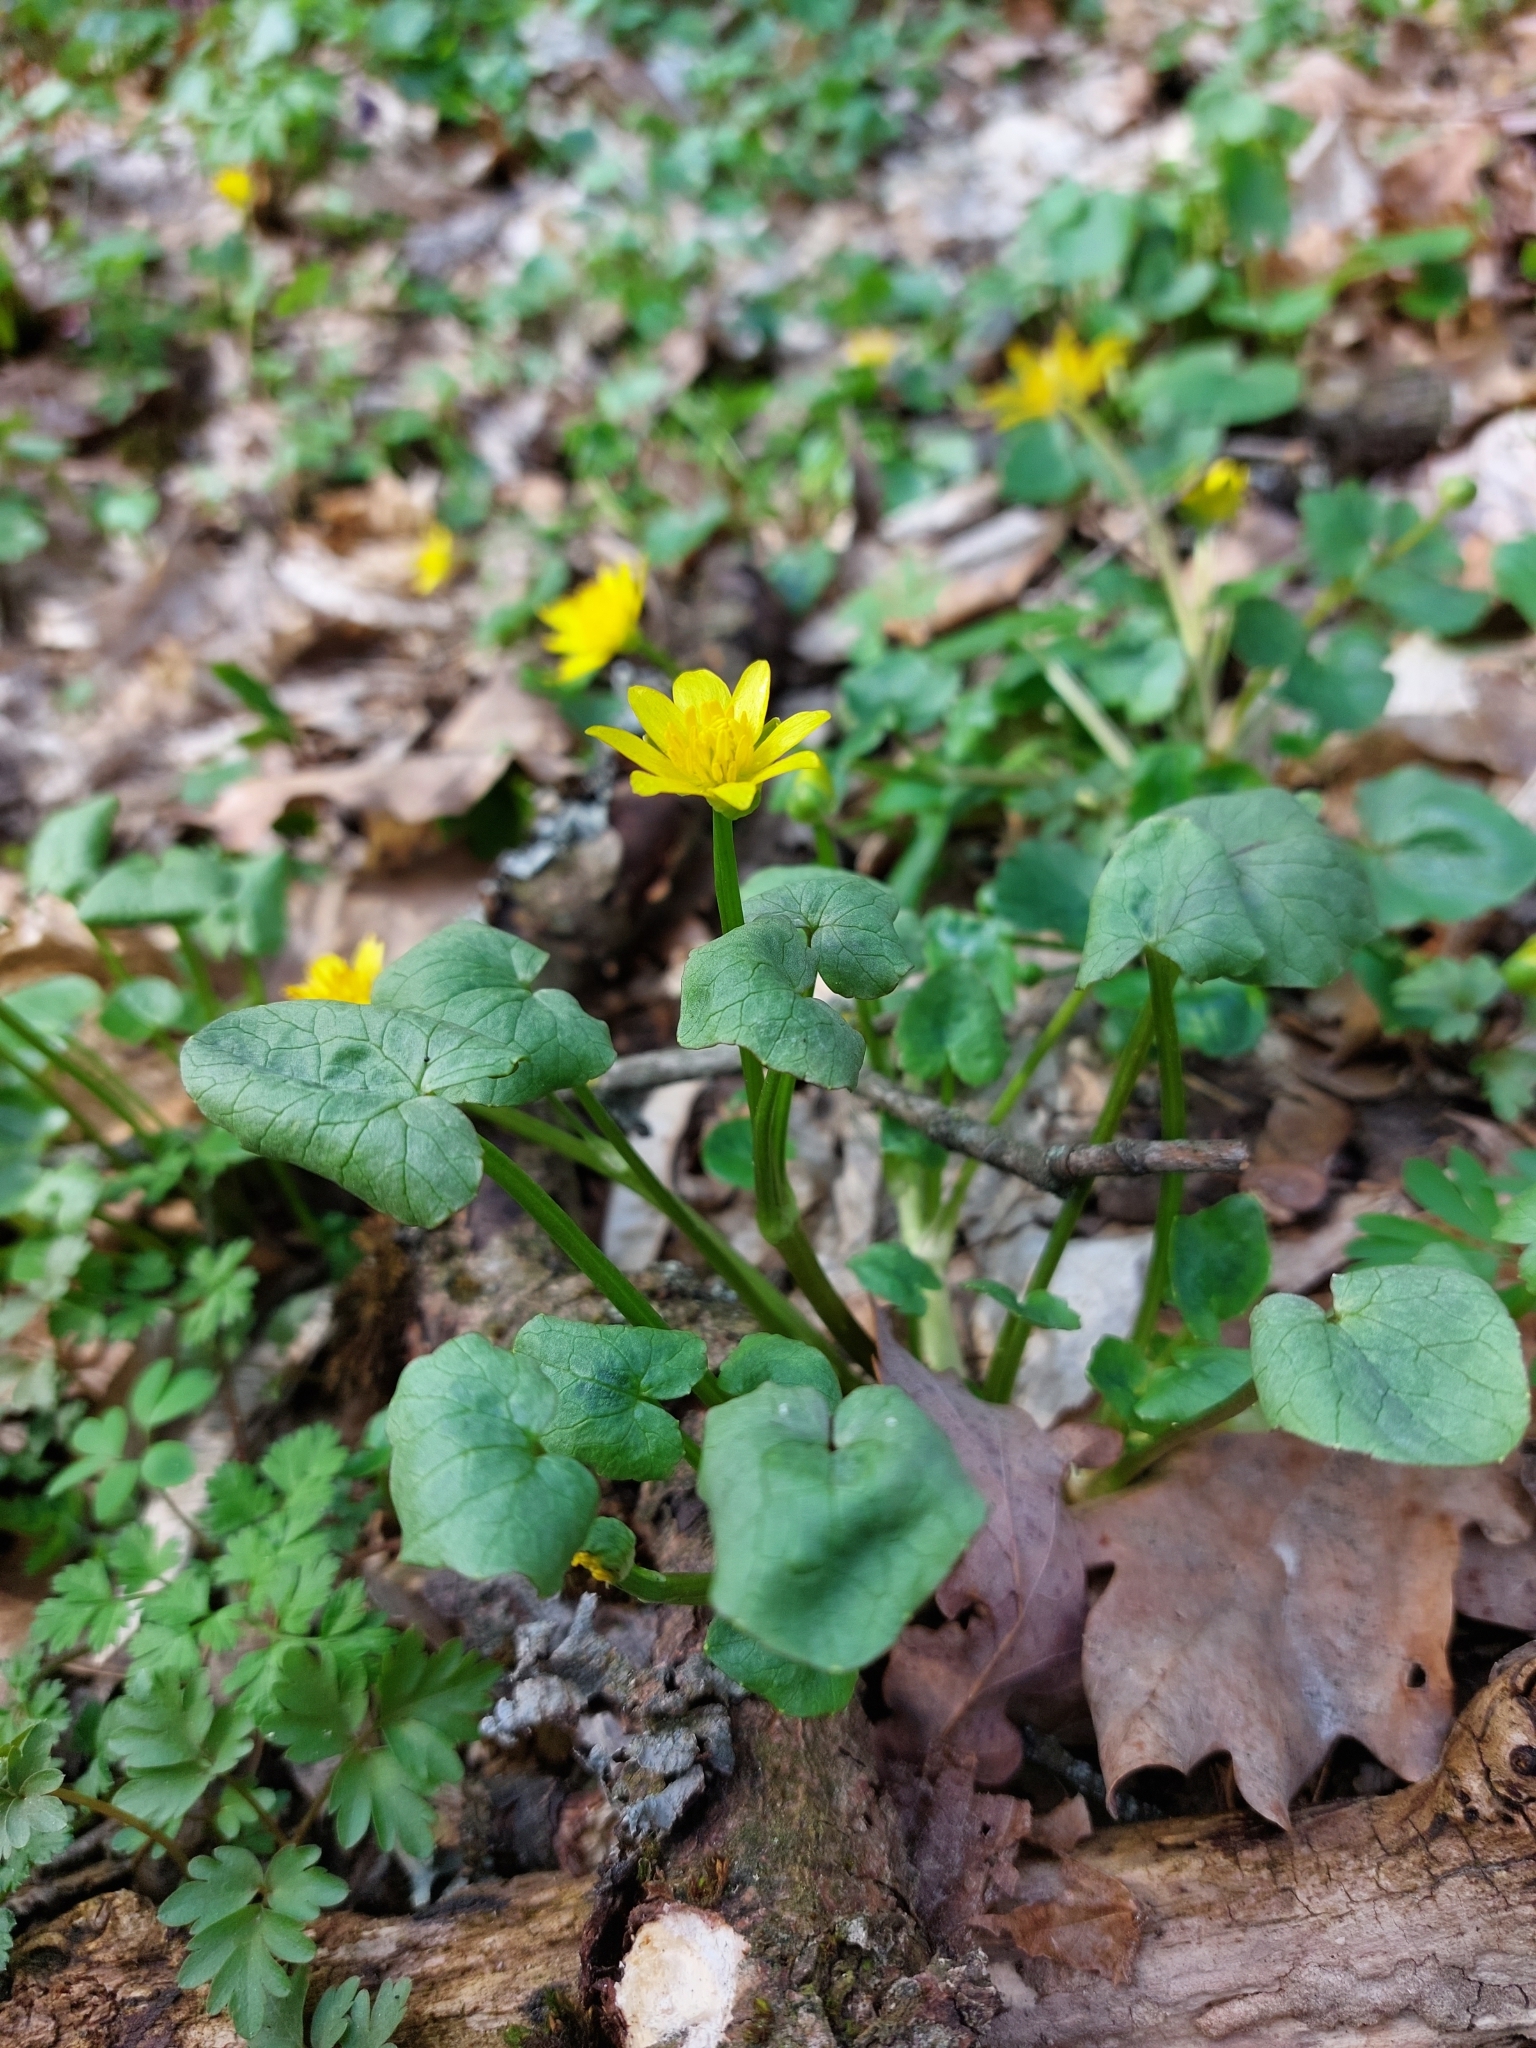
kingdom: Plantae
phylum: Tracheophyta
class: Magnoliopsida
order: Ranunculales
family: Ranunculaceae
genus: Ficaria
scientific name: Ficaria verna
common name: Lesser celandine
